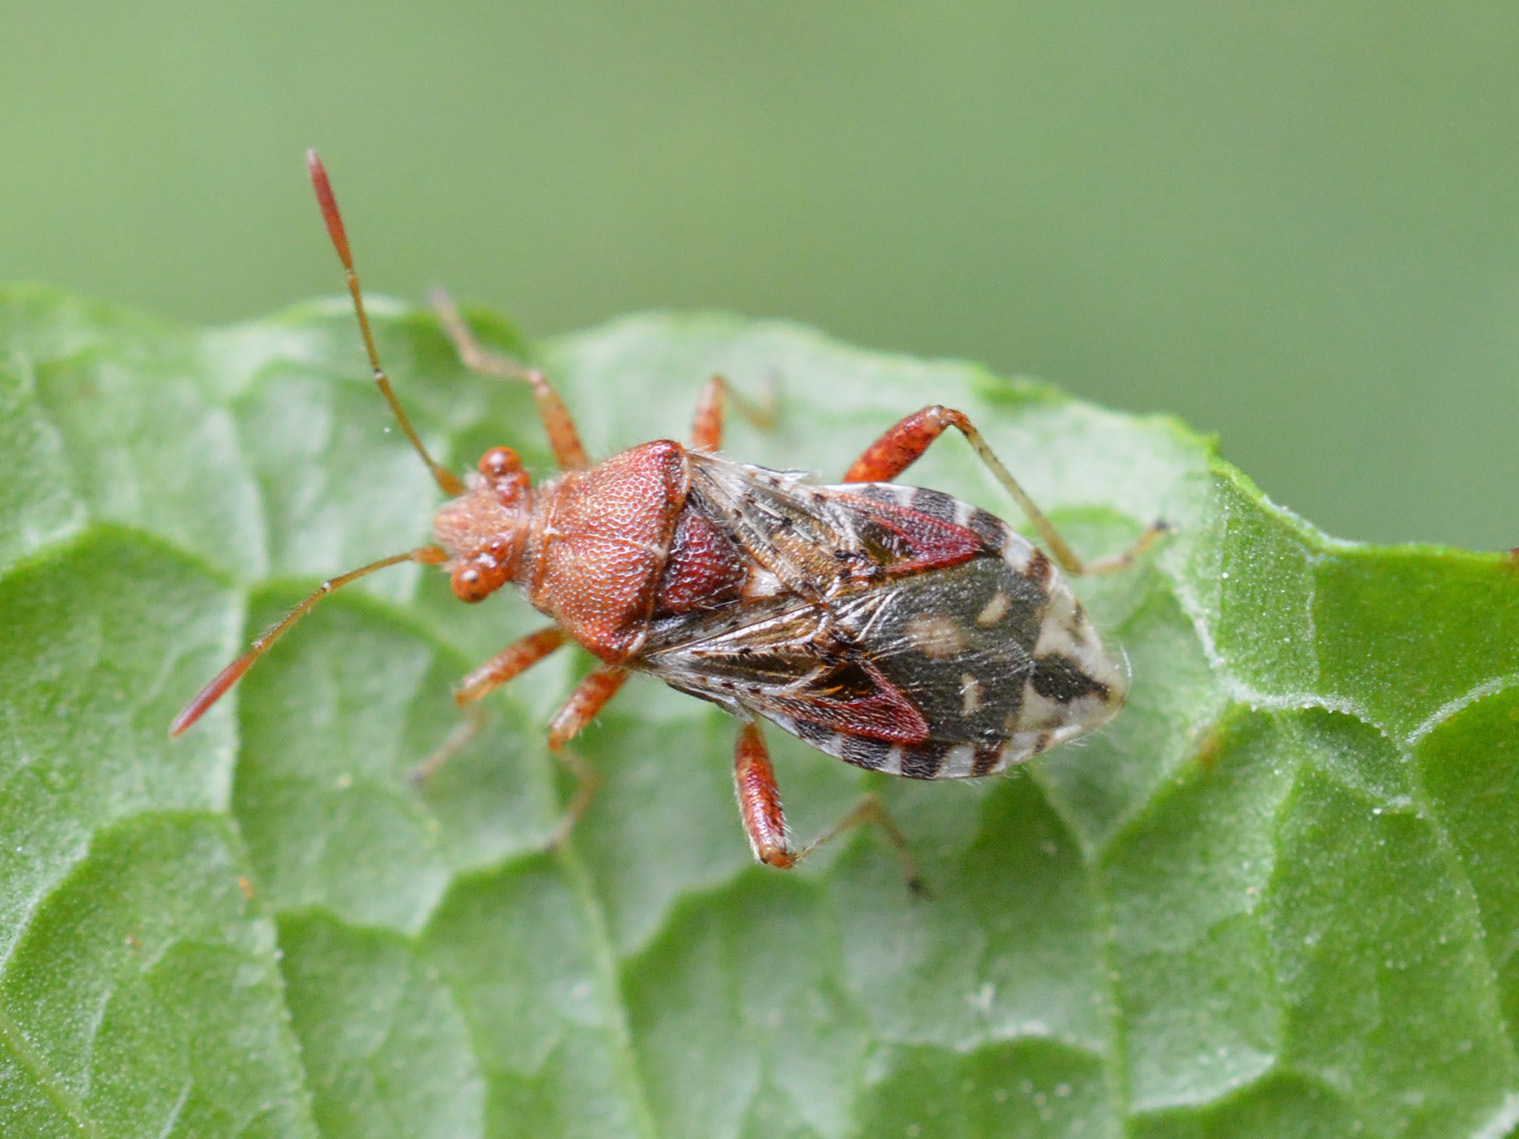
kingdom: Animalia
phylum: Arthropoda
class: Insecta
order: Hemiptera
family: Rhopalidae
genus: Rhopalus
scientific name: Rhopalus subrufus
